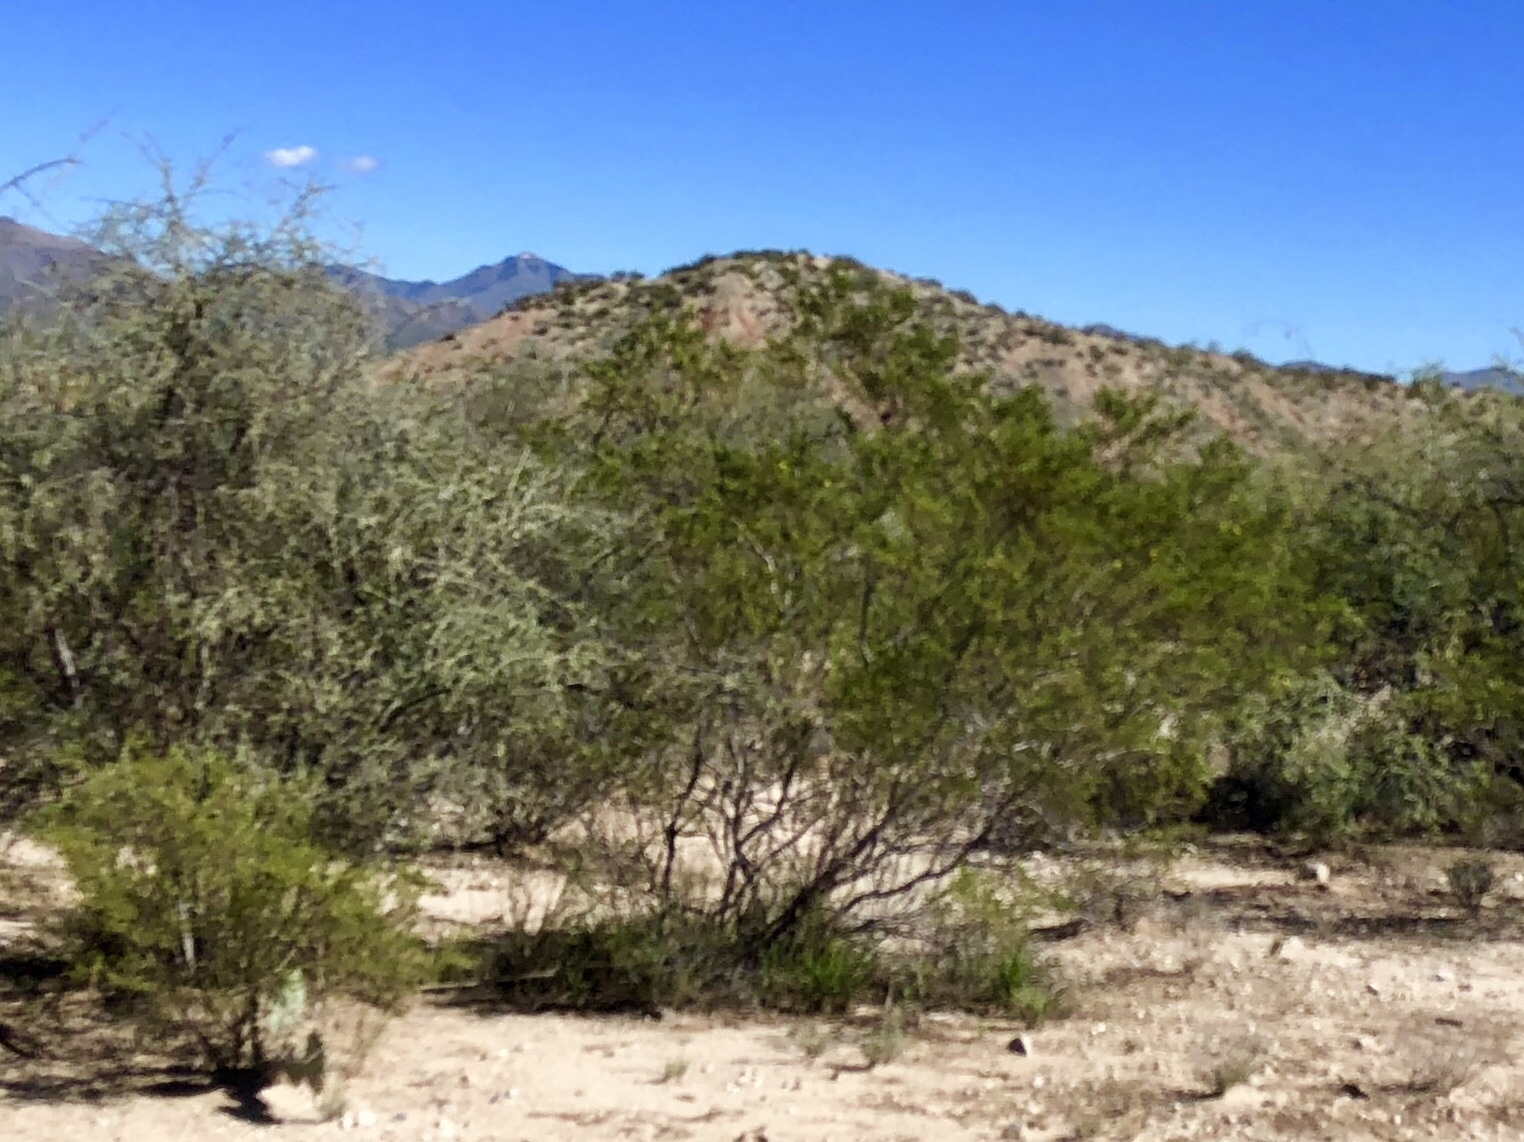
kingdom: Plantae
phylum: Tracheophyta
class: Magnoliopsida
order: Zygophyllales
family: Zygophyllaceae
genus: Larrea
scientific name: Larrea tridentata
